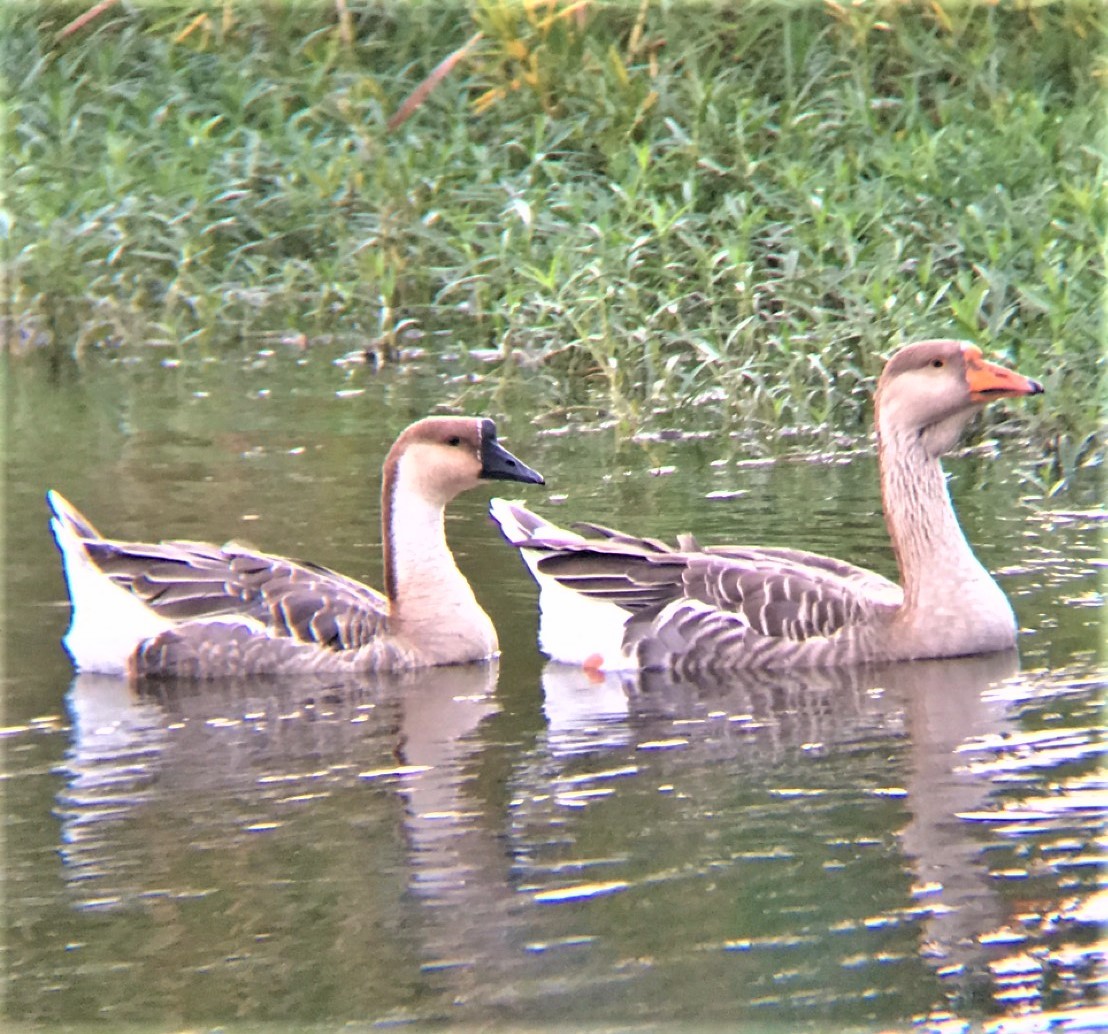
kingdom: Animalia
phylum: Chordata
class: Aves
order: Anseriformes
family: Anatidae
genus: Anser
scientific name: Anser cygnoides
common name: Swan goose
